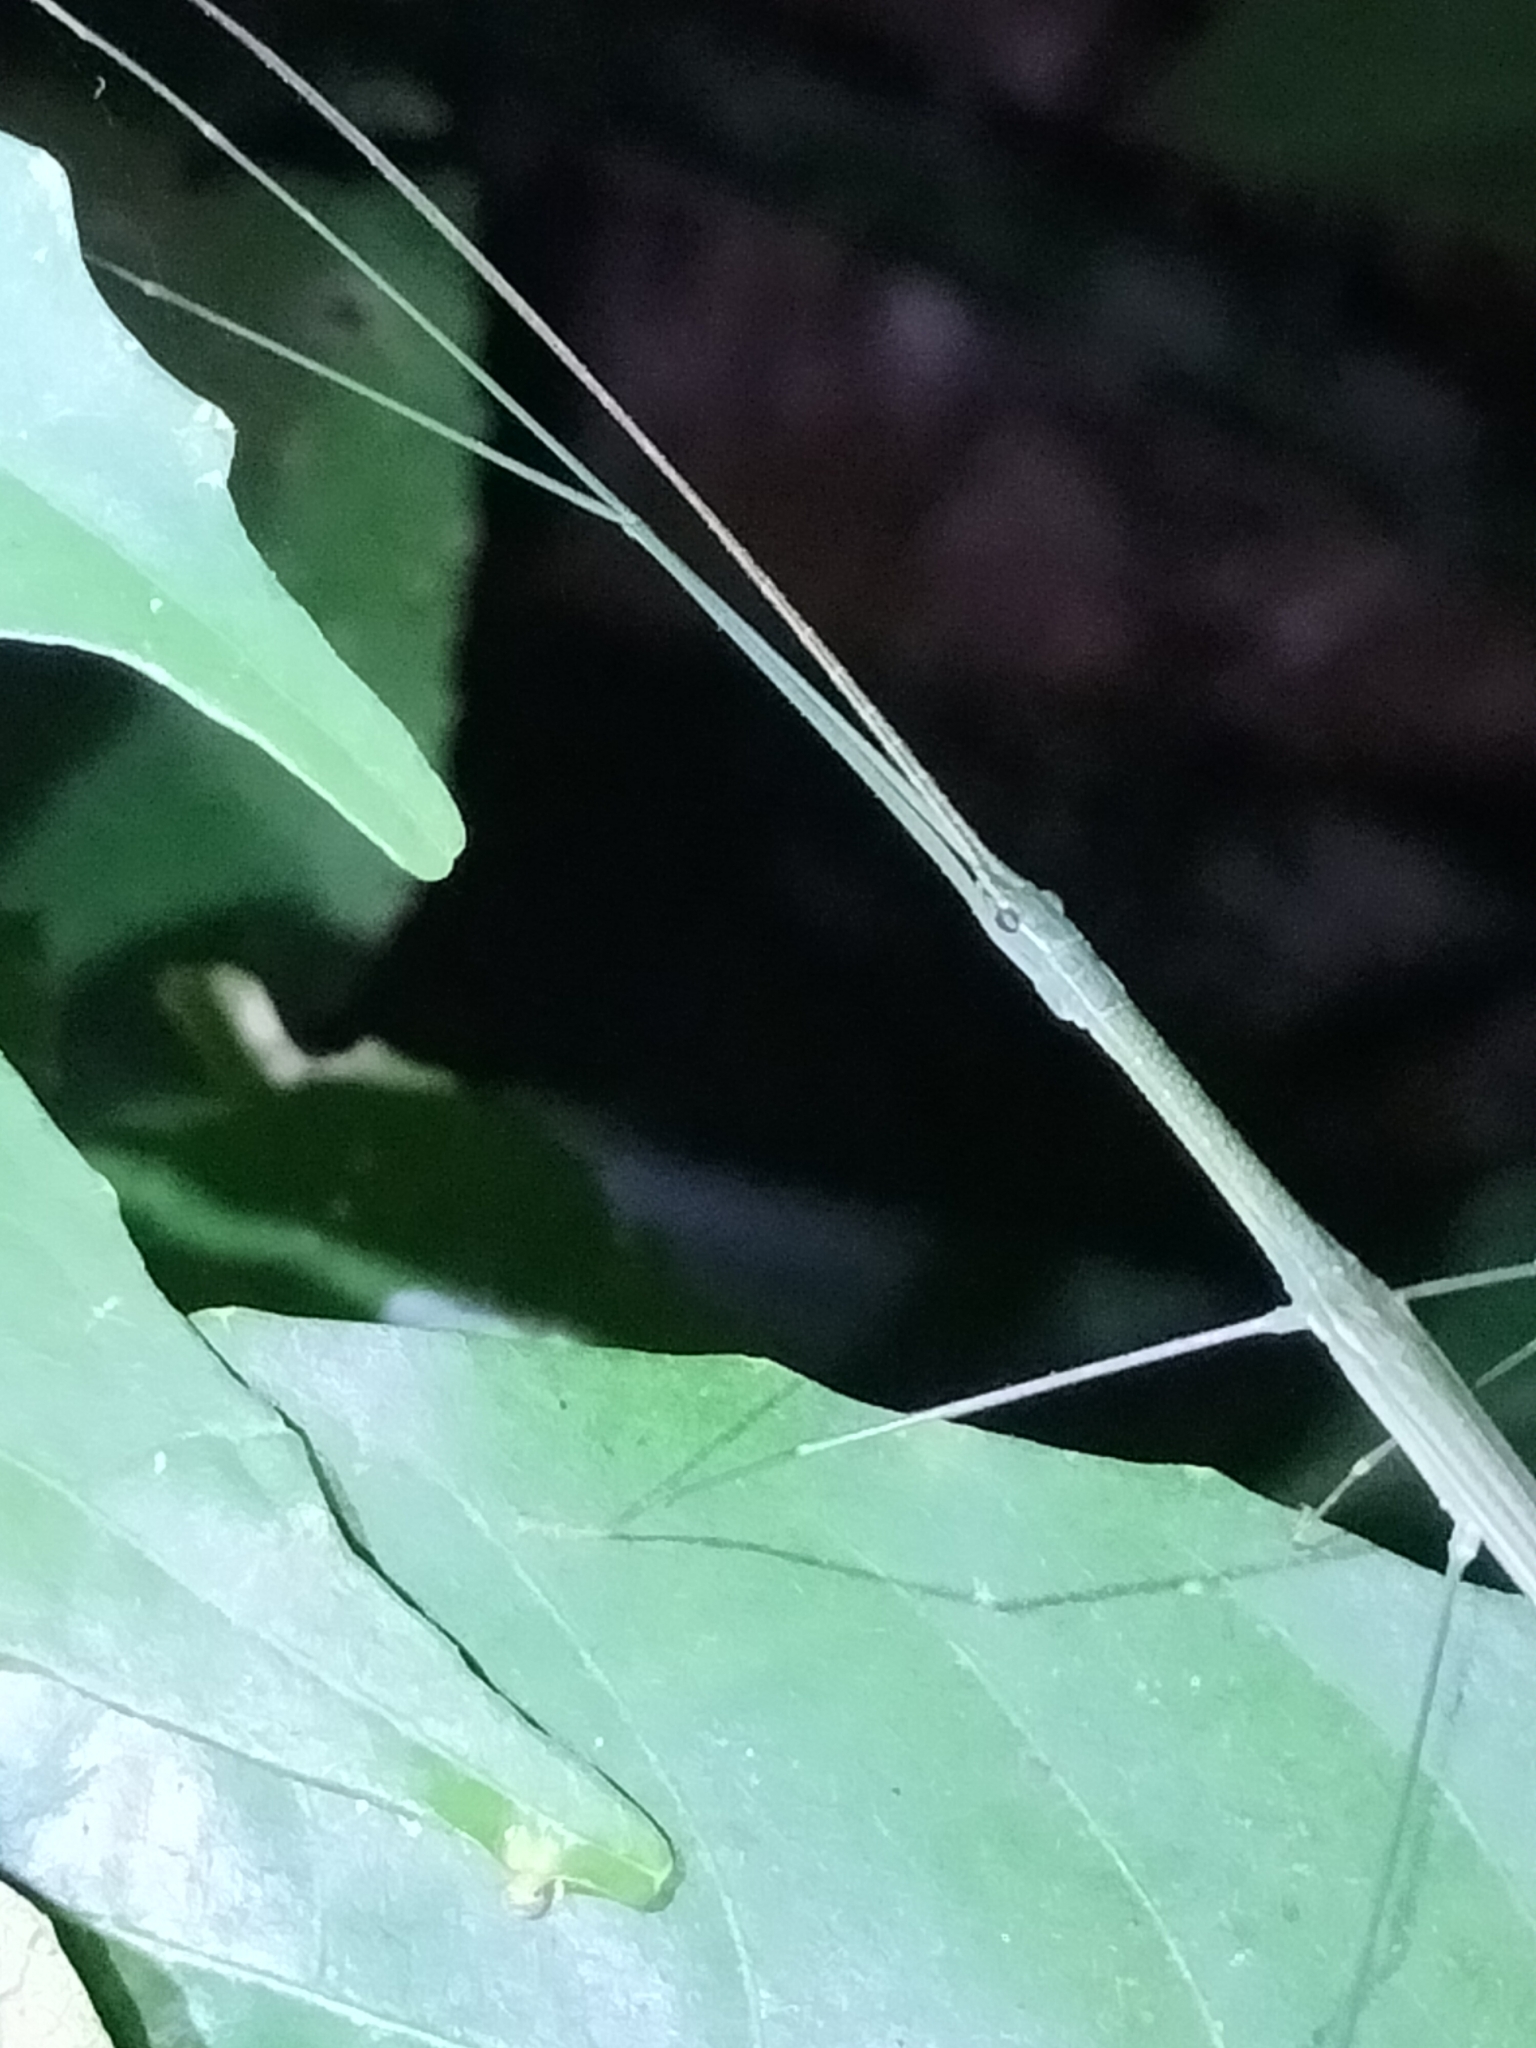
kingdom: Animalia
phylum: Arthropoda
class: Insecta
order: Phasmida
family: Lonchodidae
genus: Sipyloidea
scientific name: Sipyloidea rentzi
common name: Rentz's sipyloidea stick-insect
